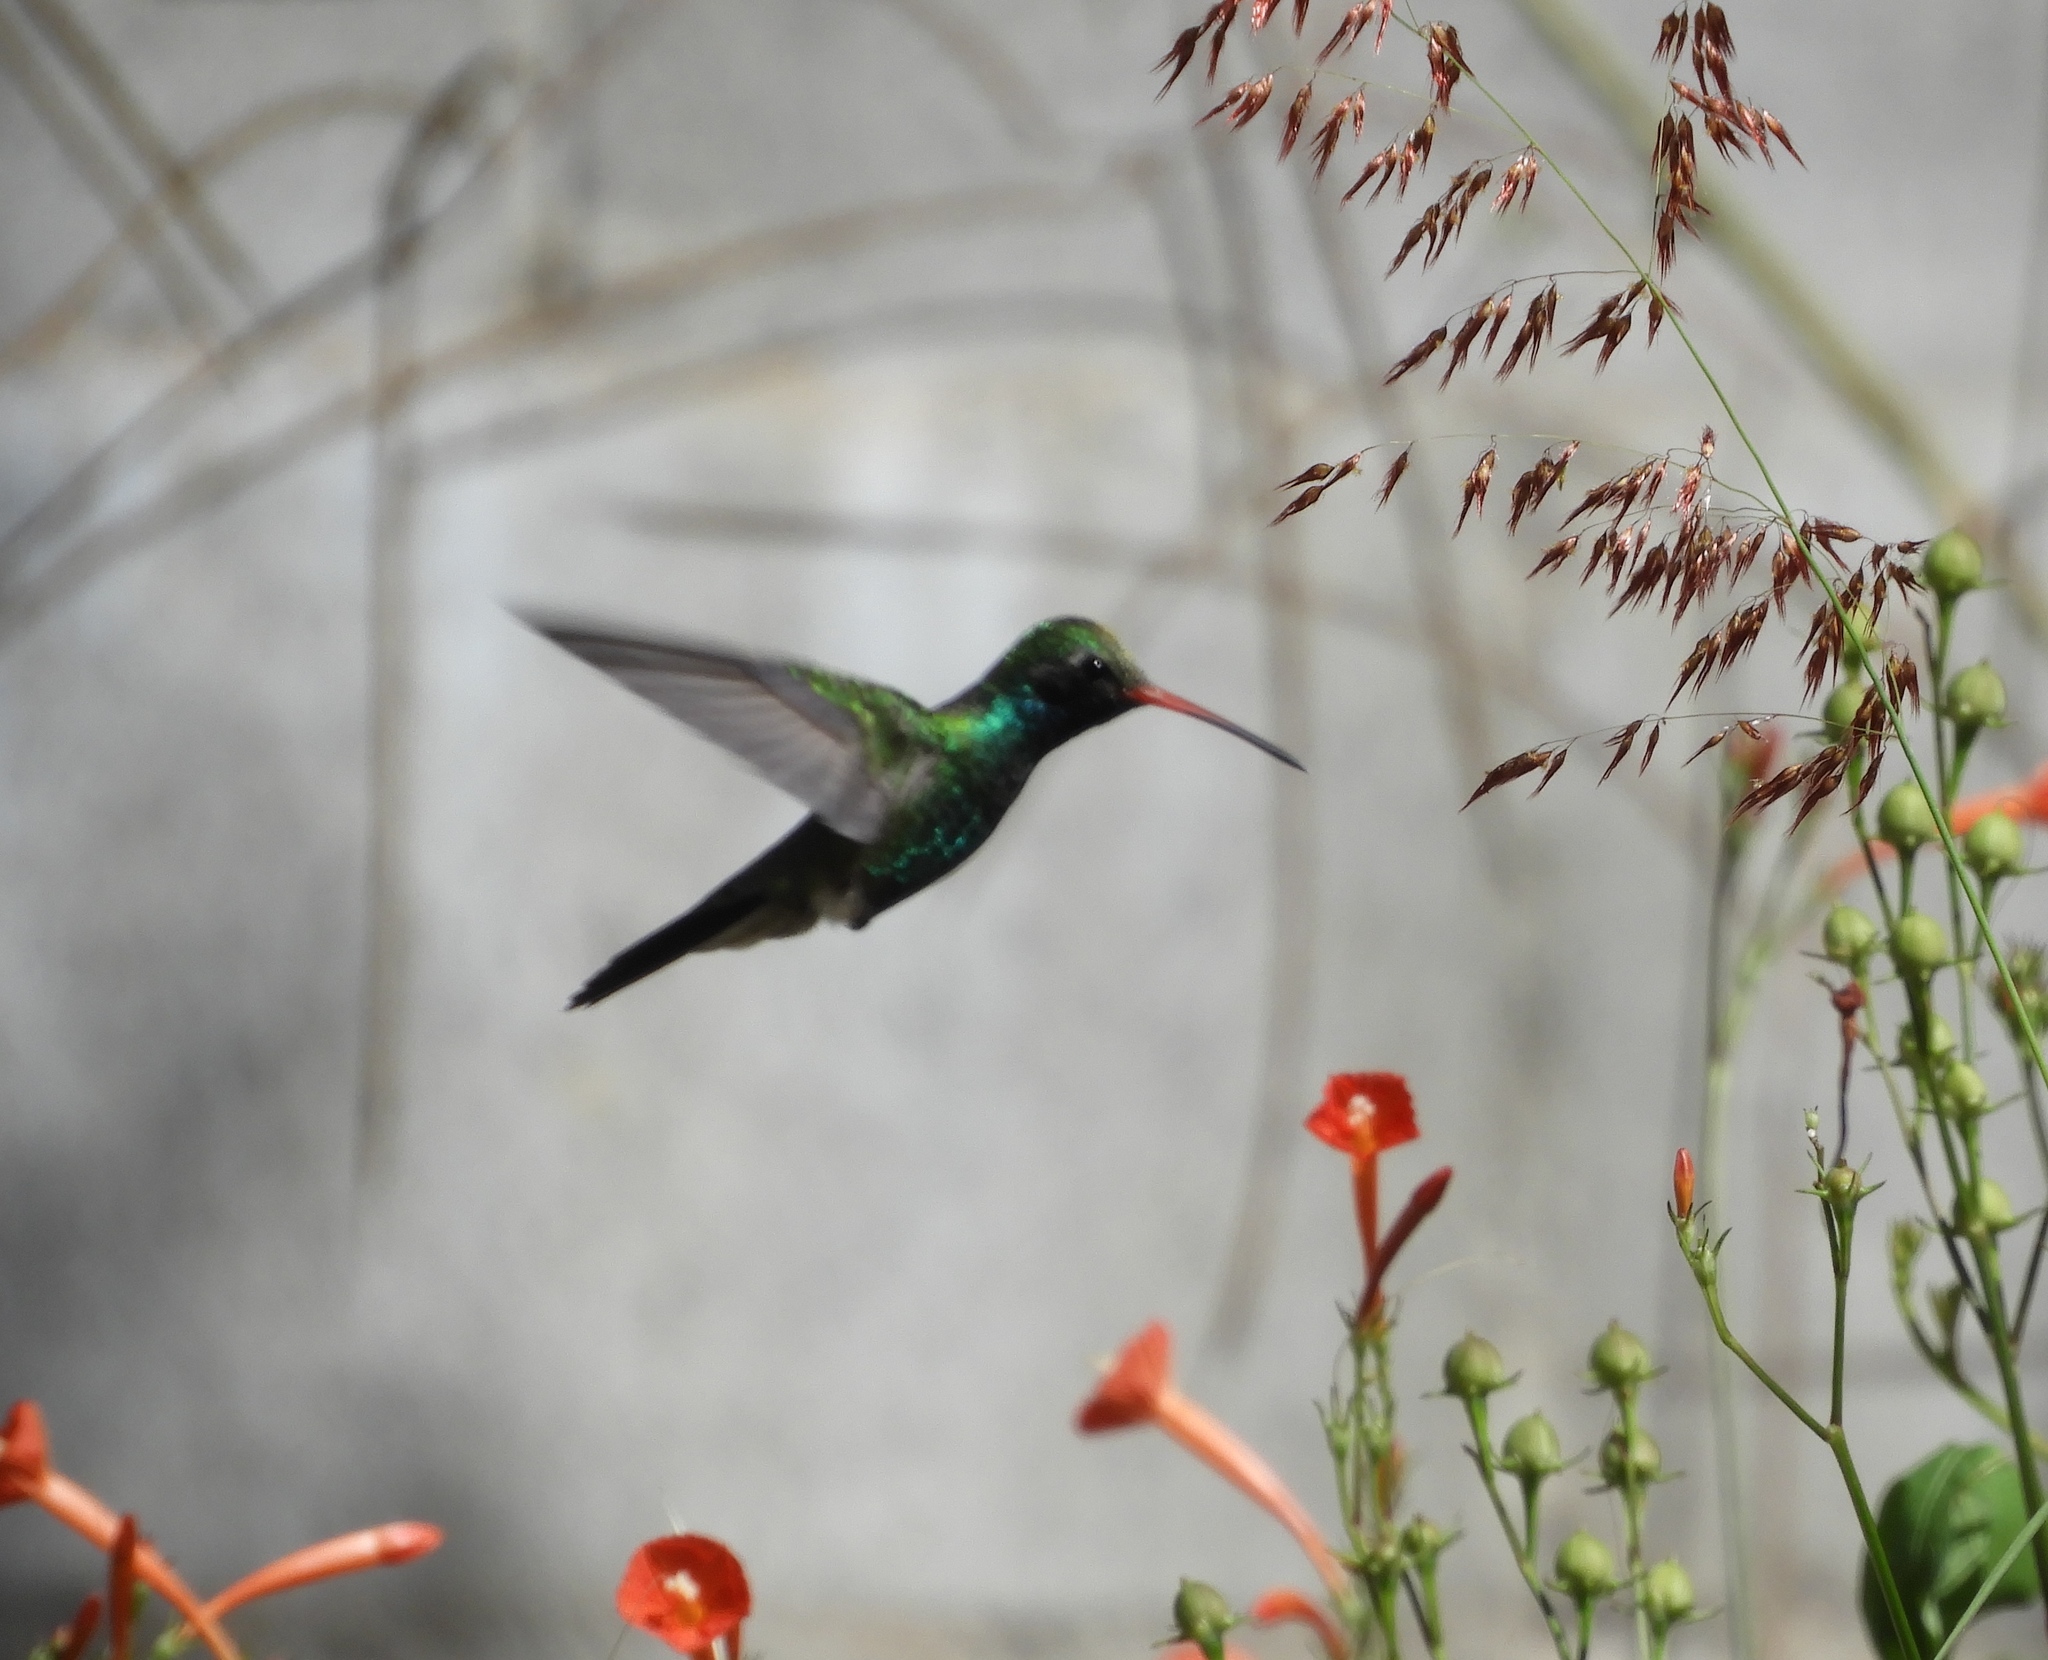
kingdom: Animalia
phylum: Chordata
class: Aves
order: Apodiformes
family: Trochilidae
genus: Cynanthus
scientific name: Cynanthus latirostris
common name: Broad-billed hummingbird
